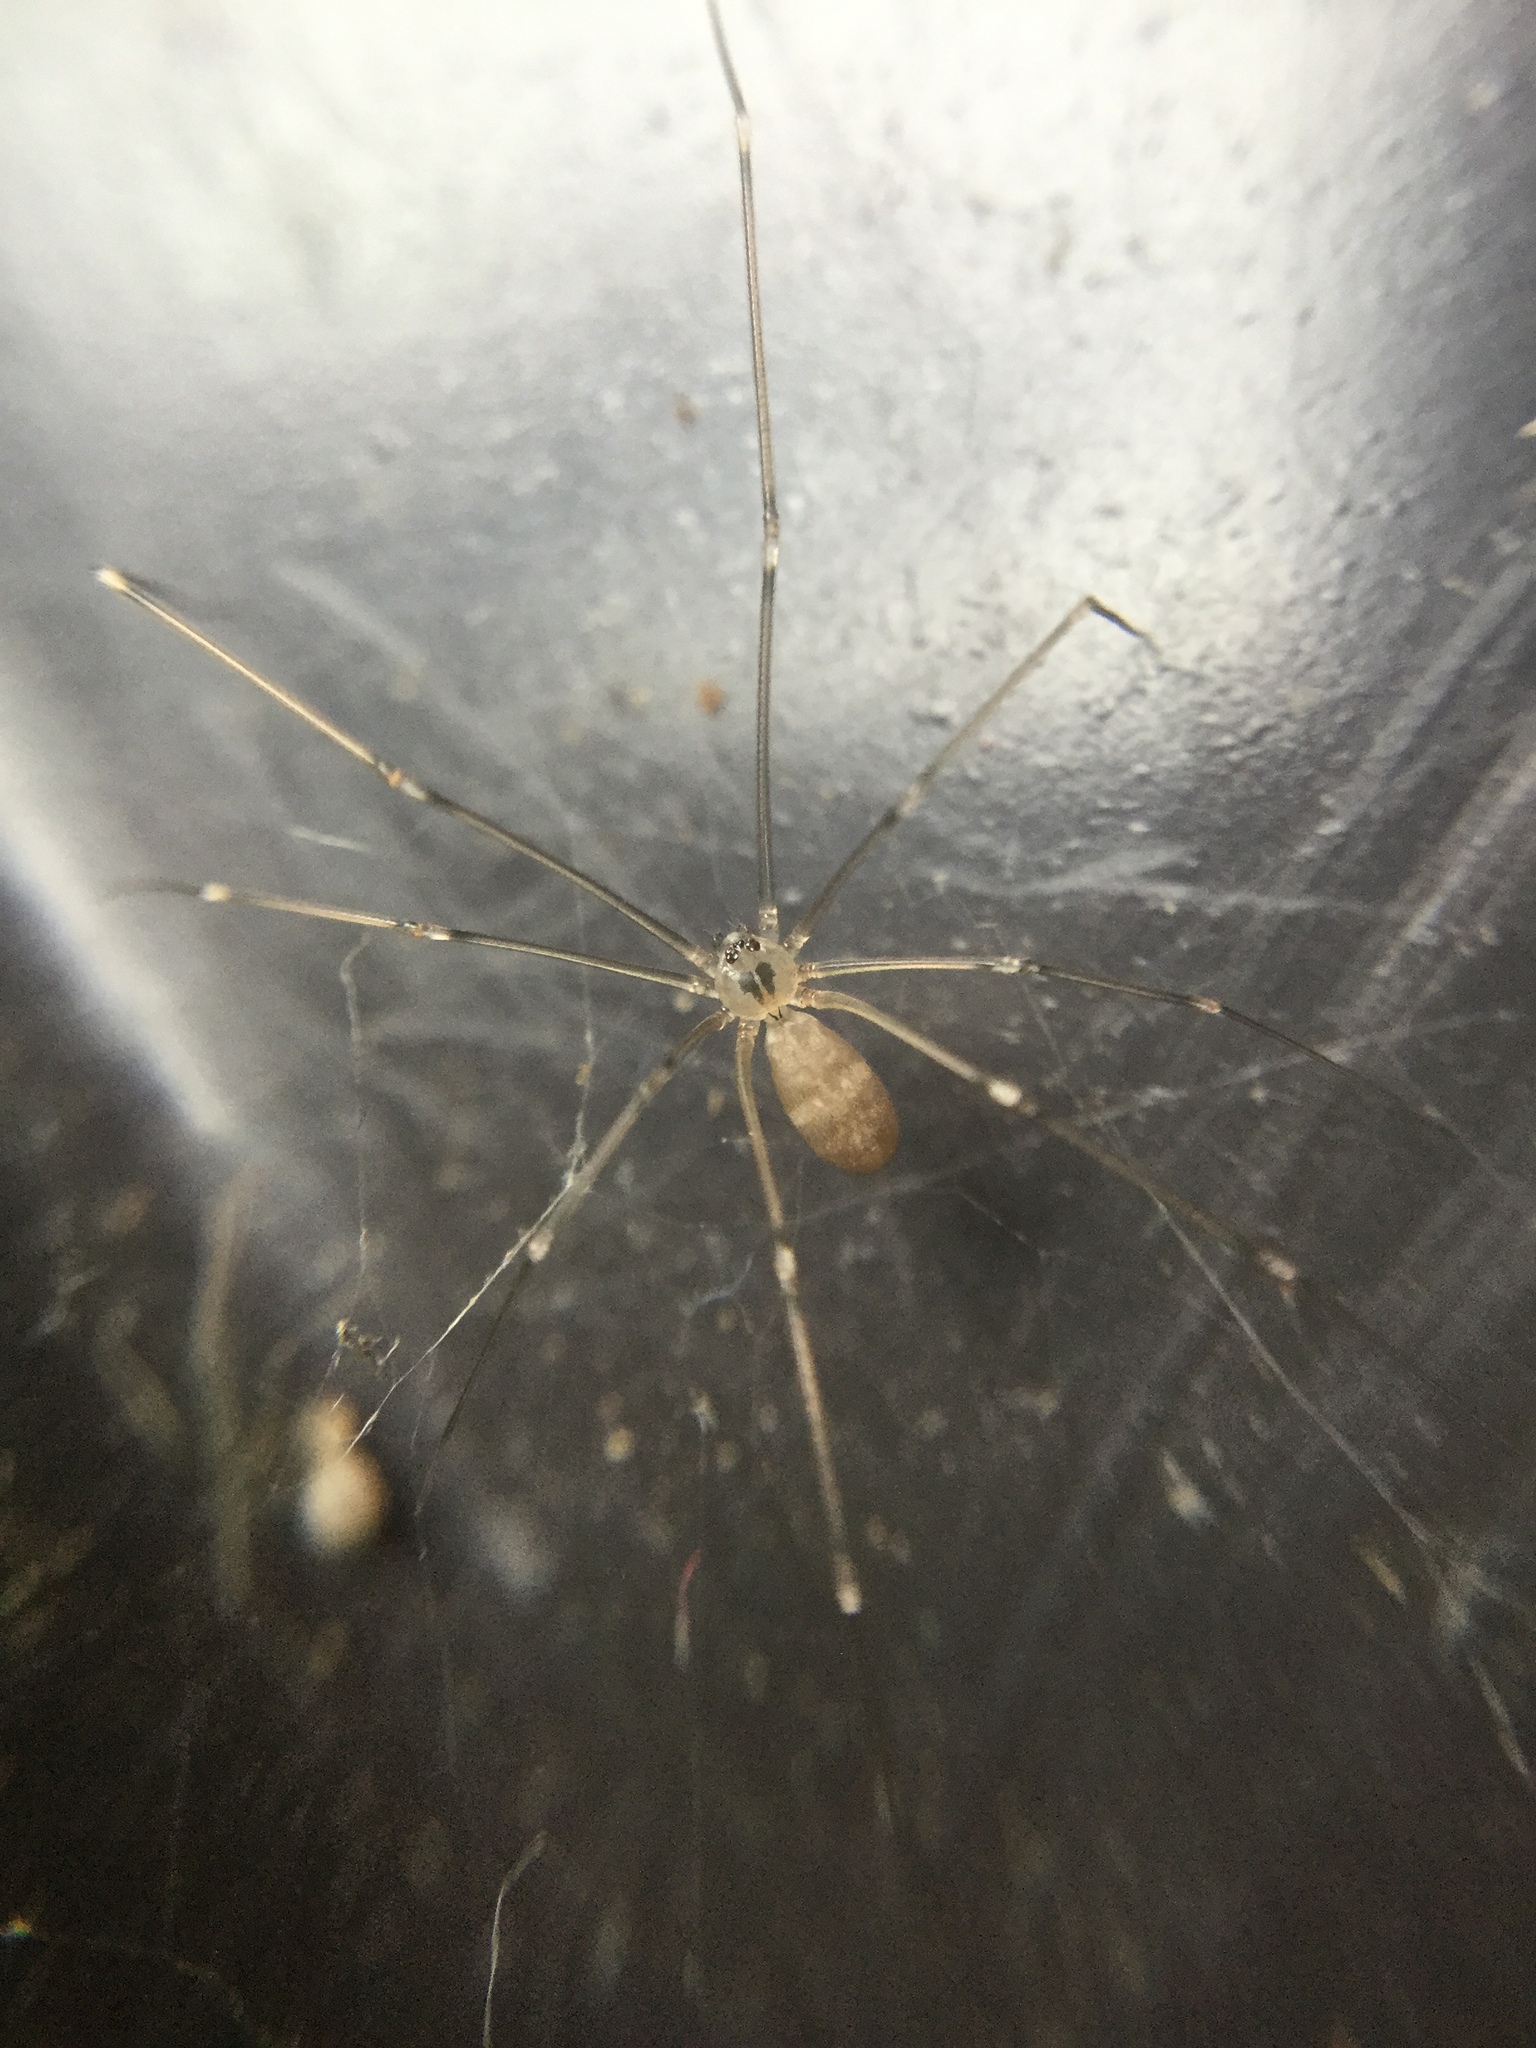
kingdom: Animalia
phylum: Arthropoda
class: Arachnida
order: Araneae
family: Pholcidae
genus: Pholcus
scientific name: Pholcus manueli
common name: Cellar spider
